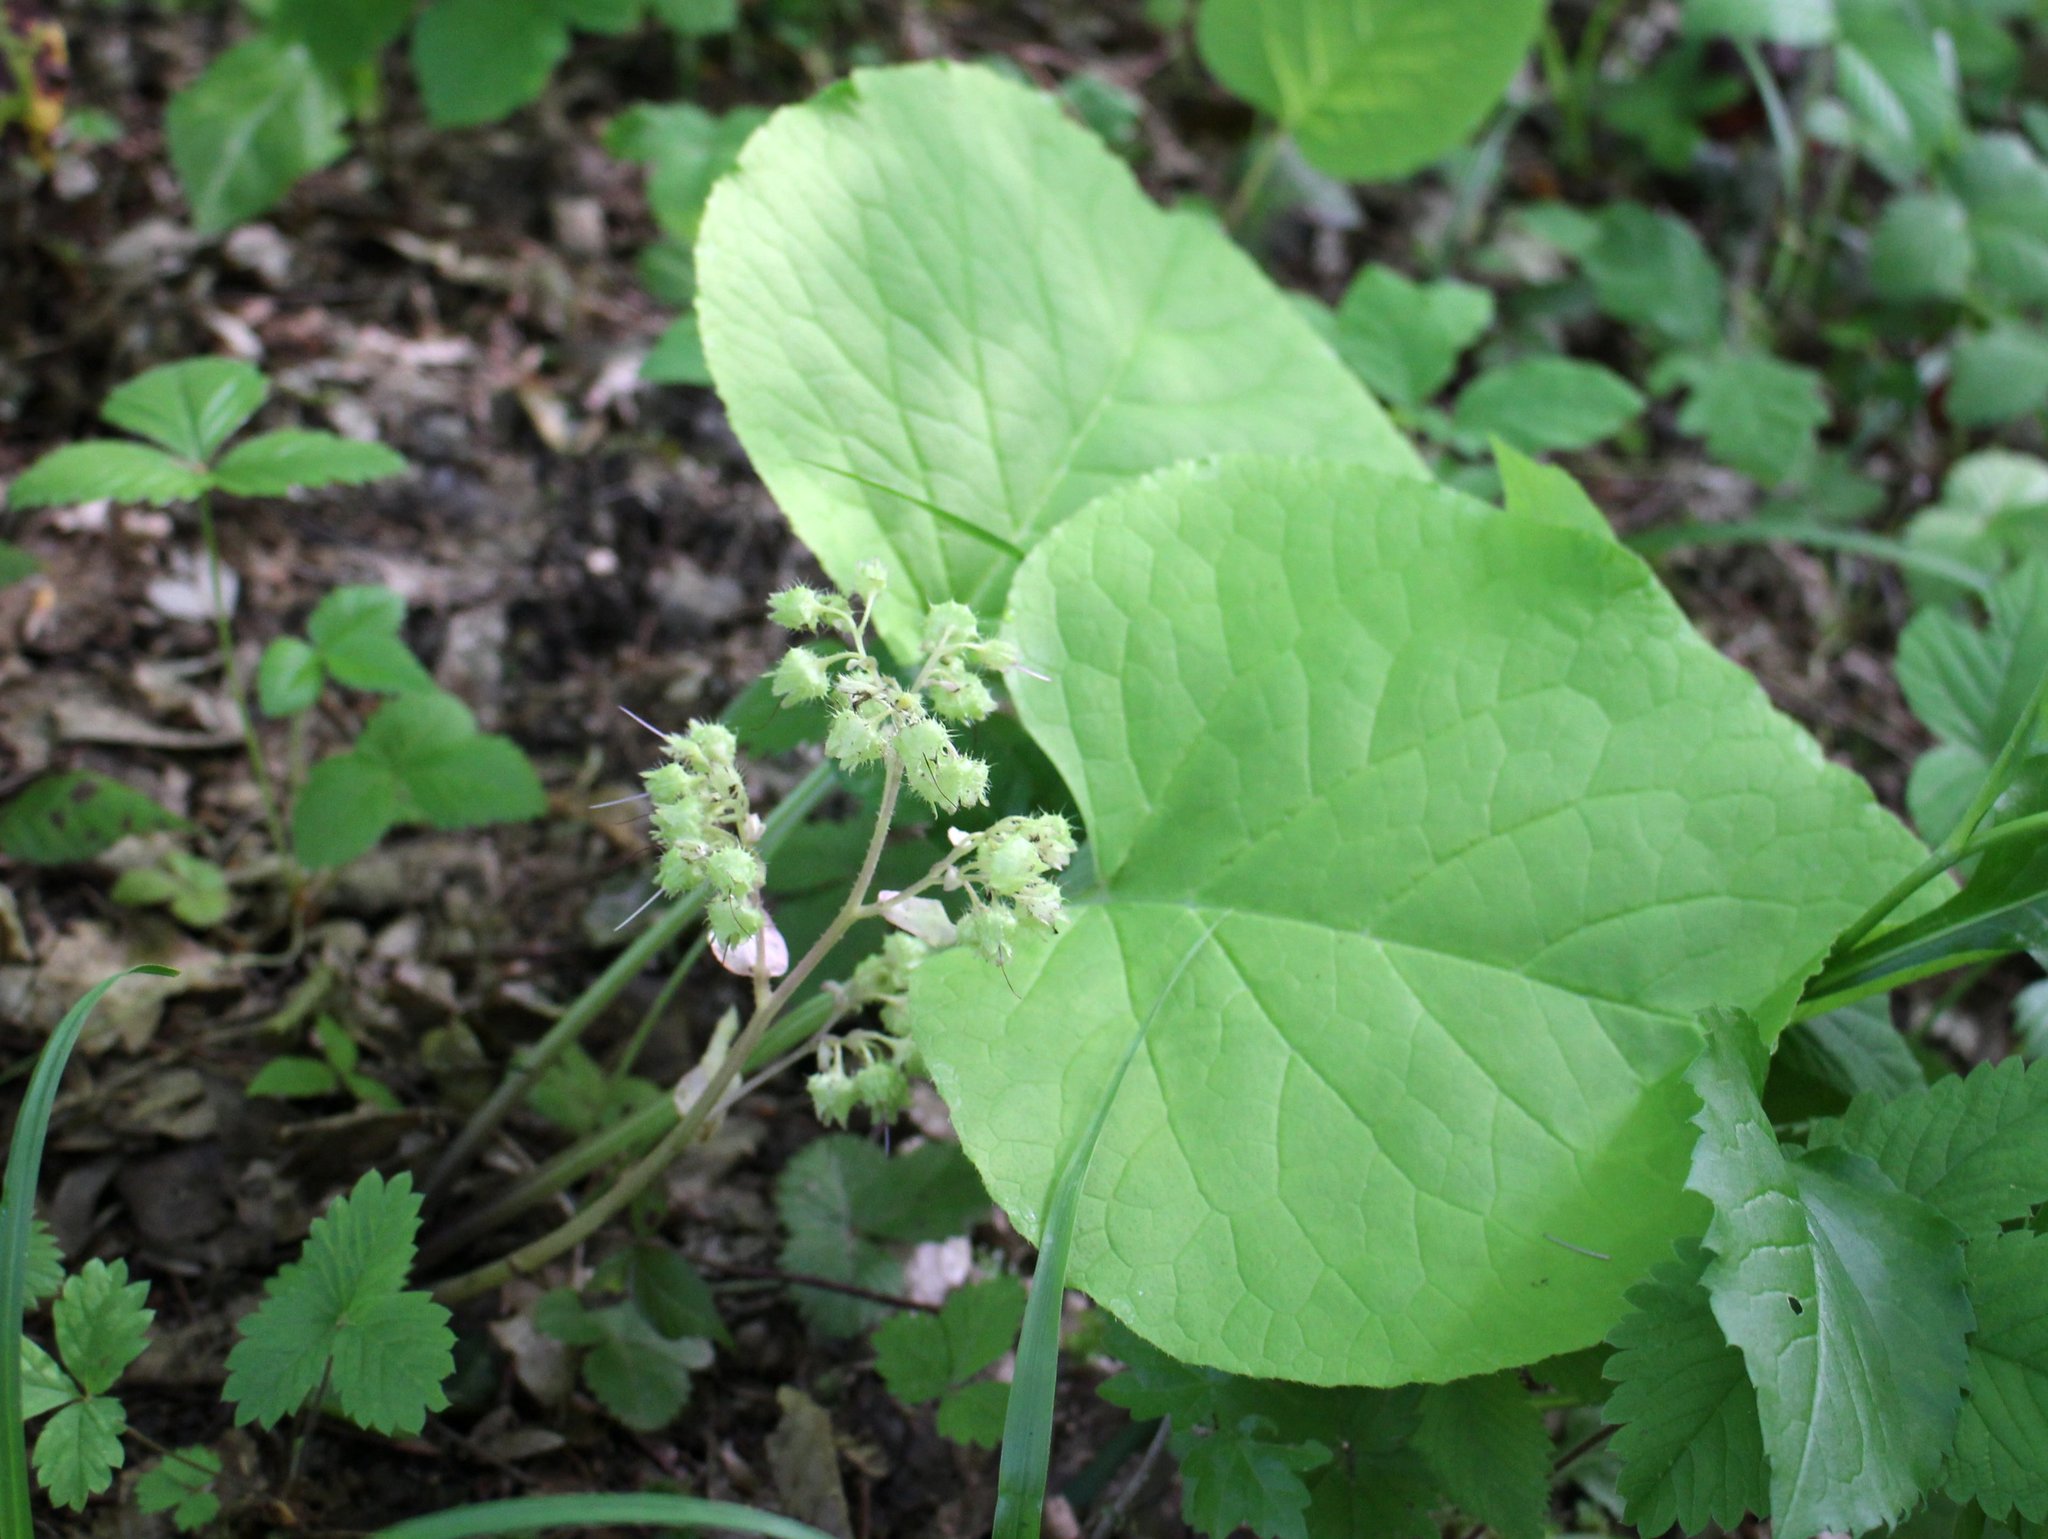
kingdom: Plantae
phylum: Tracheophyta
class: Magnoliopsida
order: Boraginales
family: Boraginaceae
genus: Trachystemon
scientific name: Trachystemon orientale
